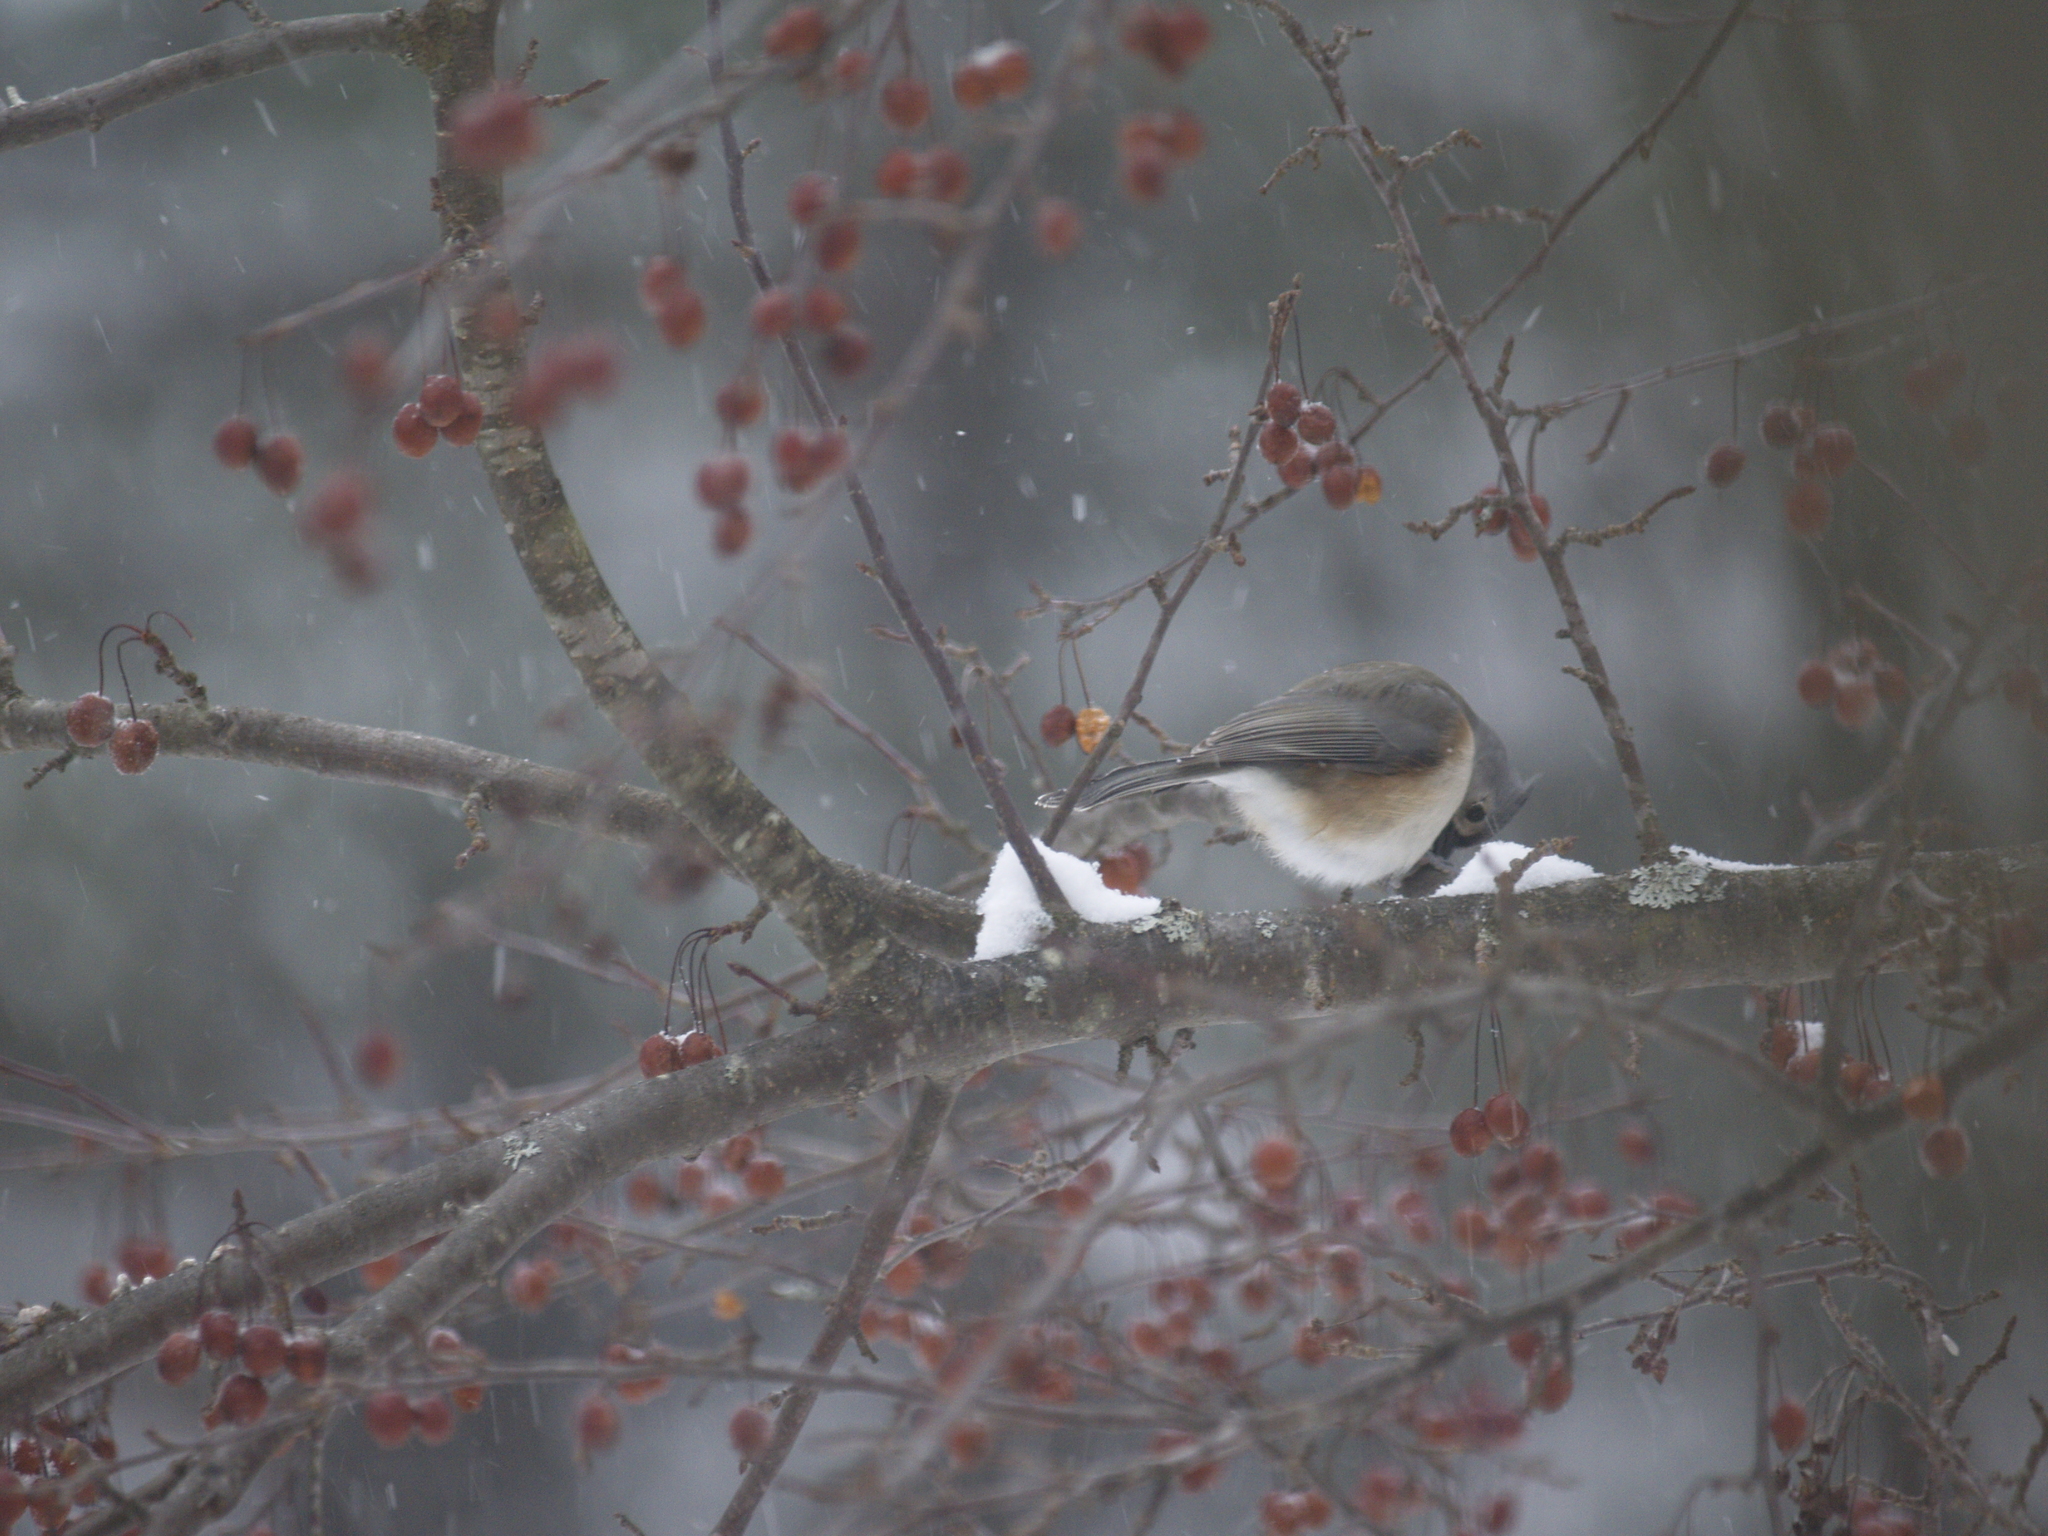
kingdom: Animalia
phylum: Chordata
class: Aves
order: Passeriformes
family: Paridae
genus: Baeolophus
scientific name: Baeolophus bicolor
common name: Tufted titmouse
